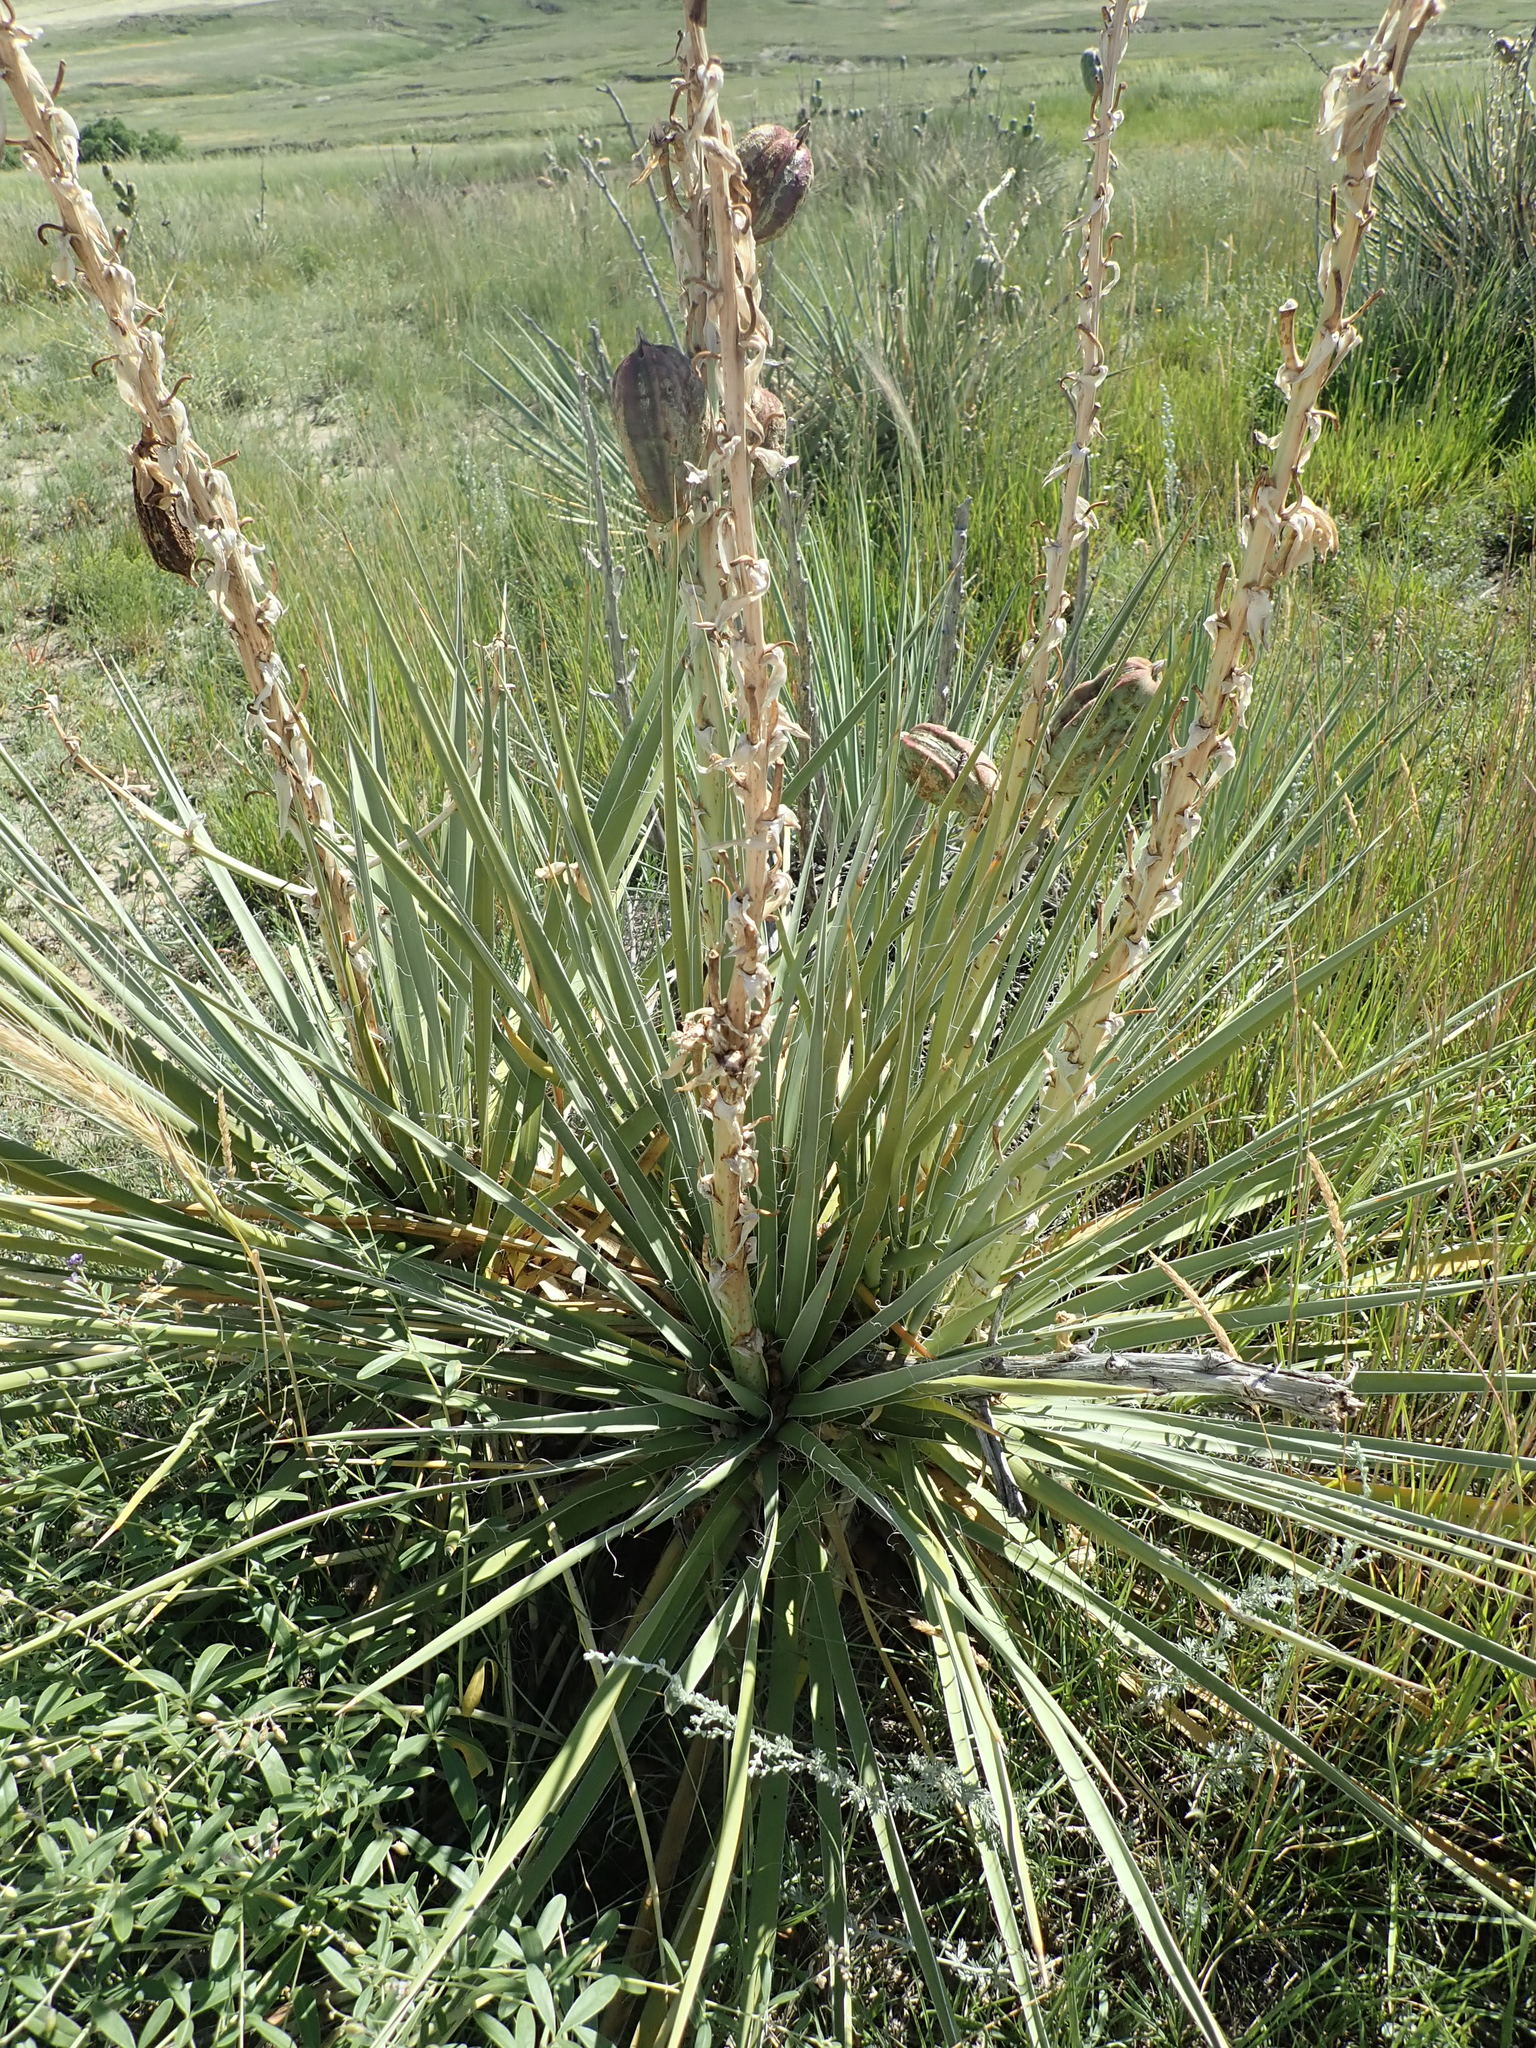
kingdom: Plantae
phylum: Tracheophyta
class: Liliopsida
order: Asparagales
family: Asparagaceae
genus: Yucca
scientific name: Yucca glauca
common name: Great plains yucca
